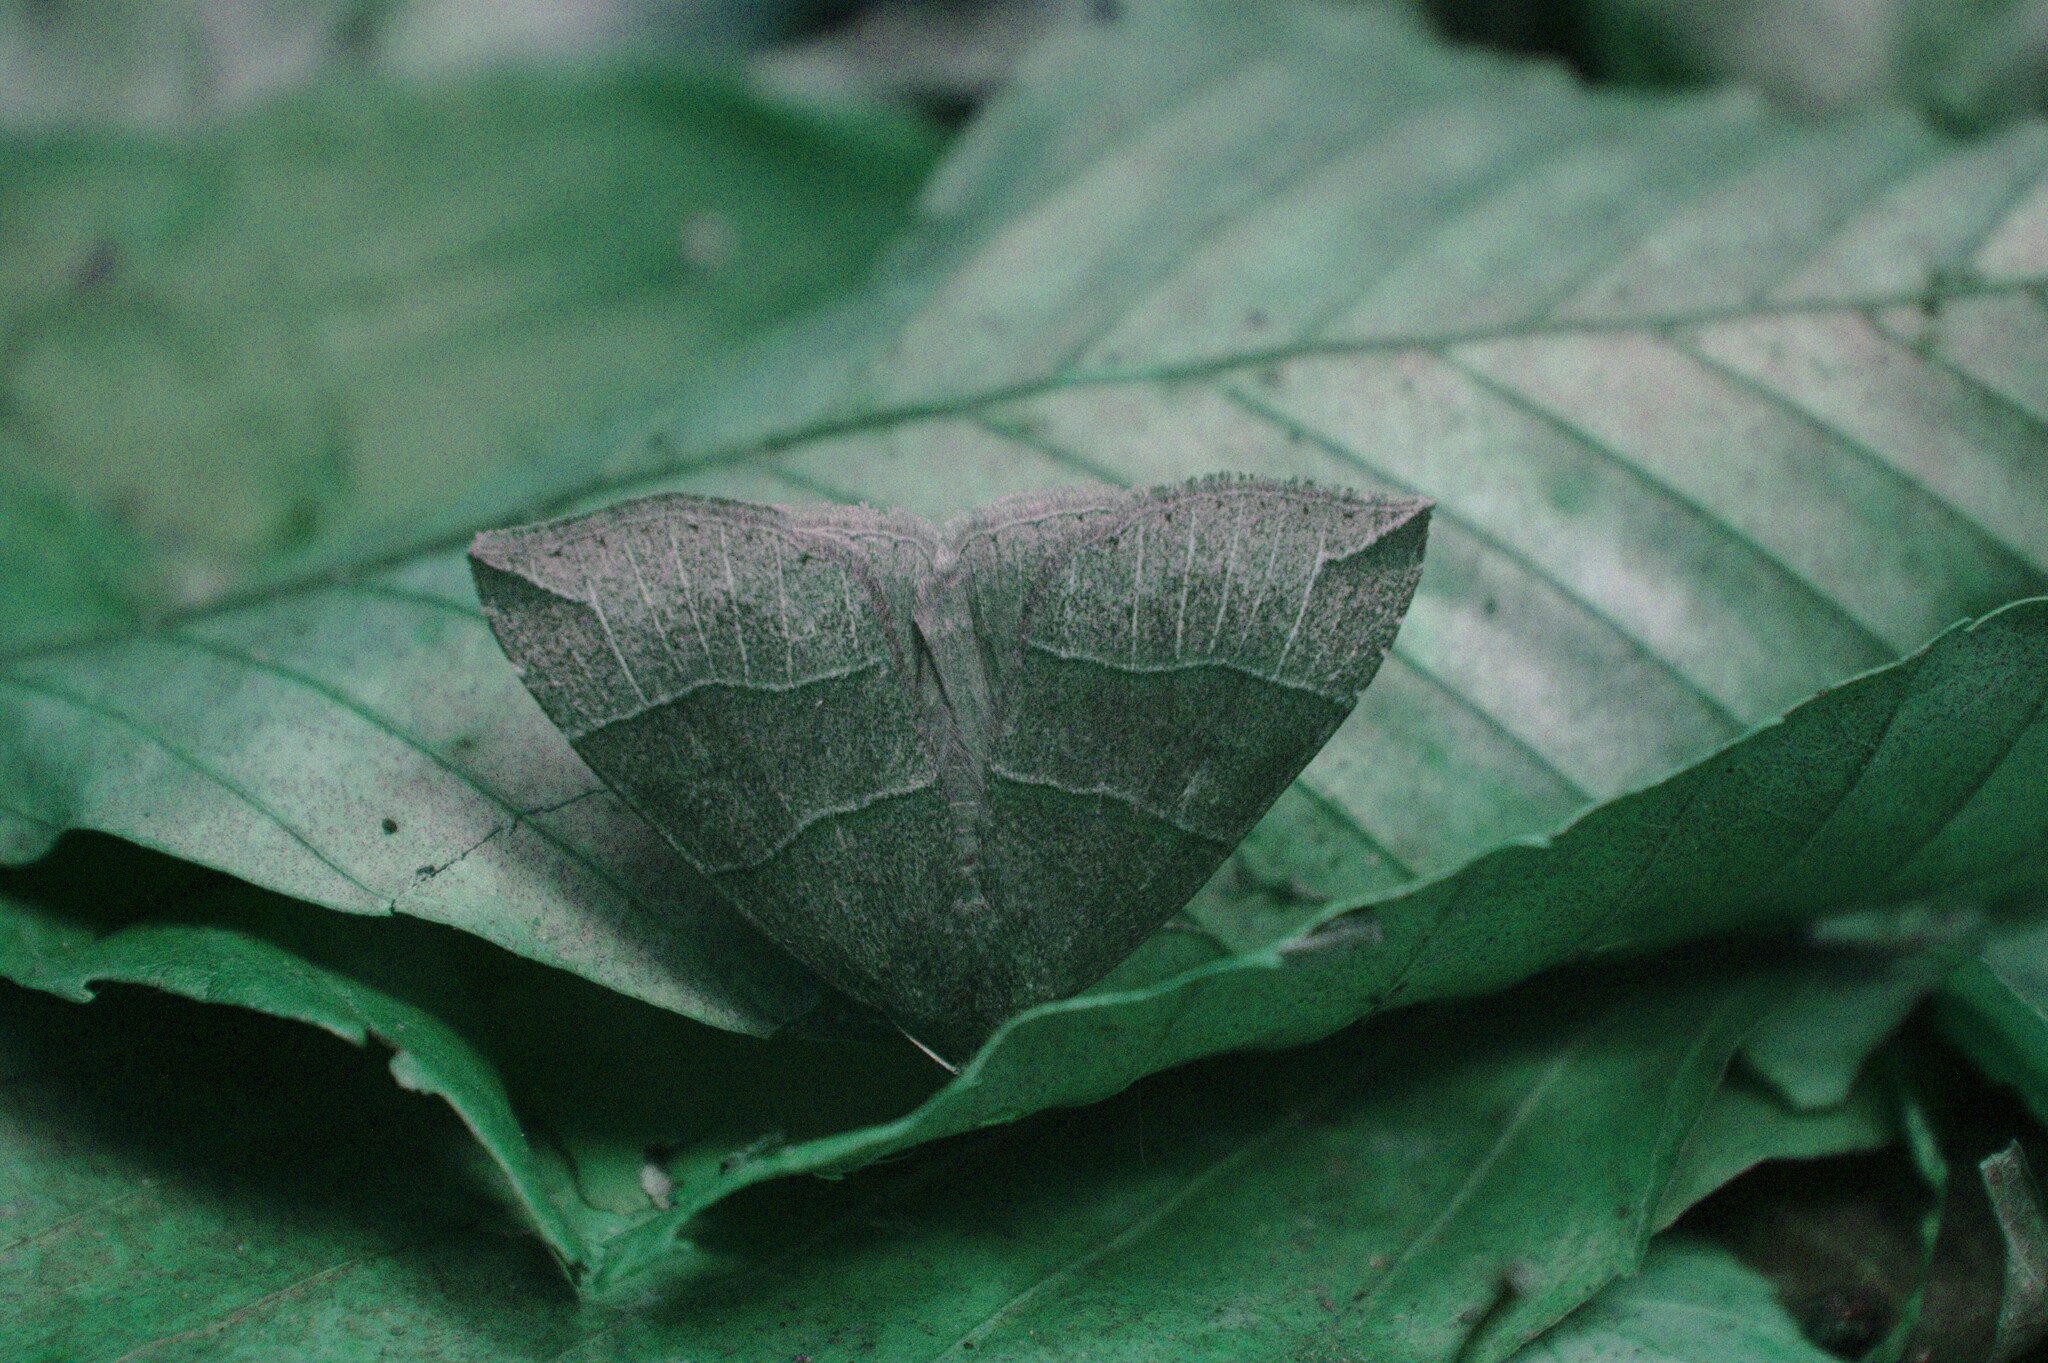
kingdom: Animalia
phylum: Arthropoda
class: Insecta
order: Lepidoptera
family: Erebidae
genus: Parallelia
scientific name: Parallelia bistriaris
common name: Maple looper moth
